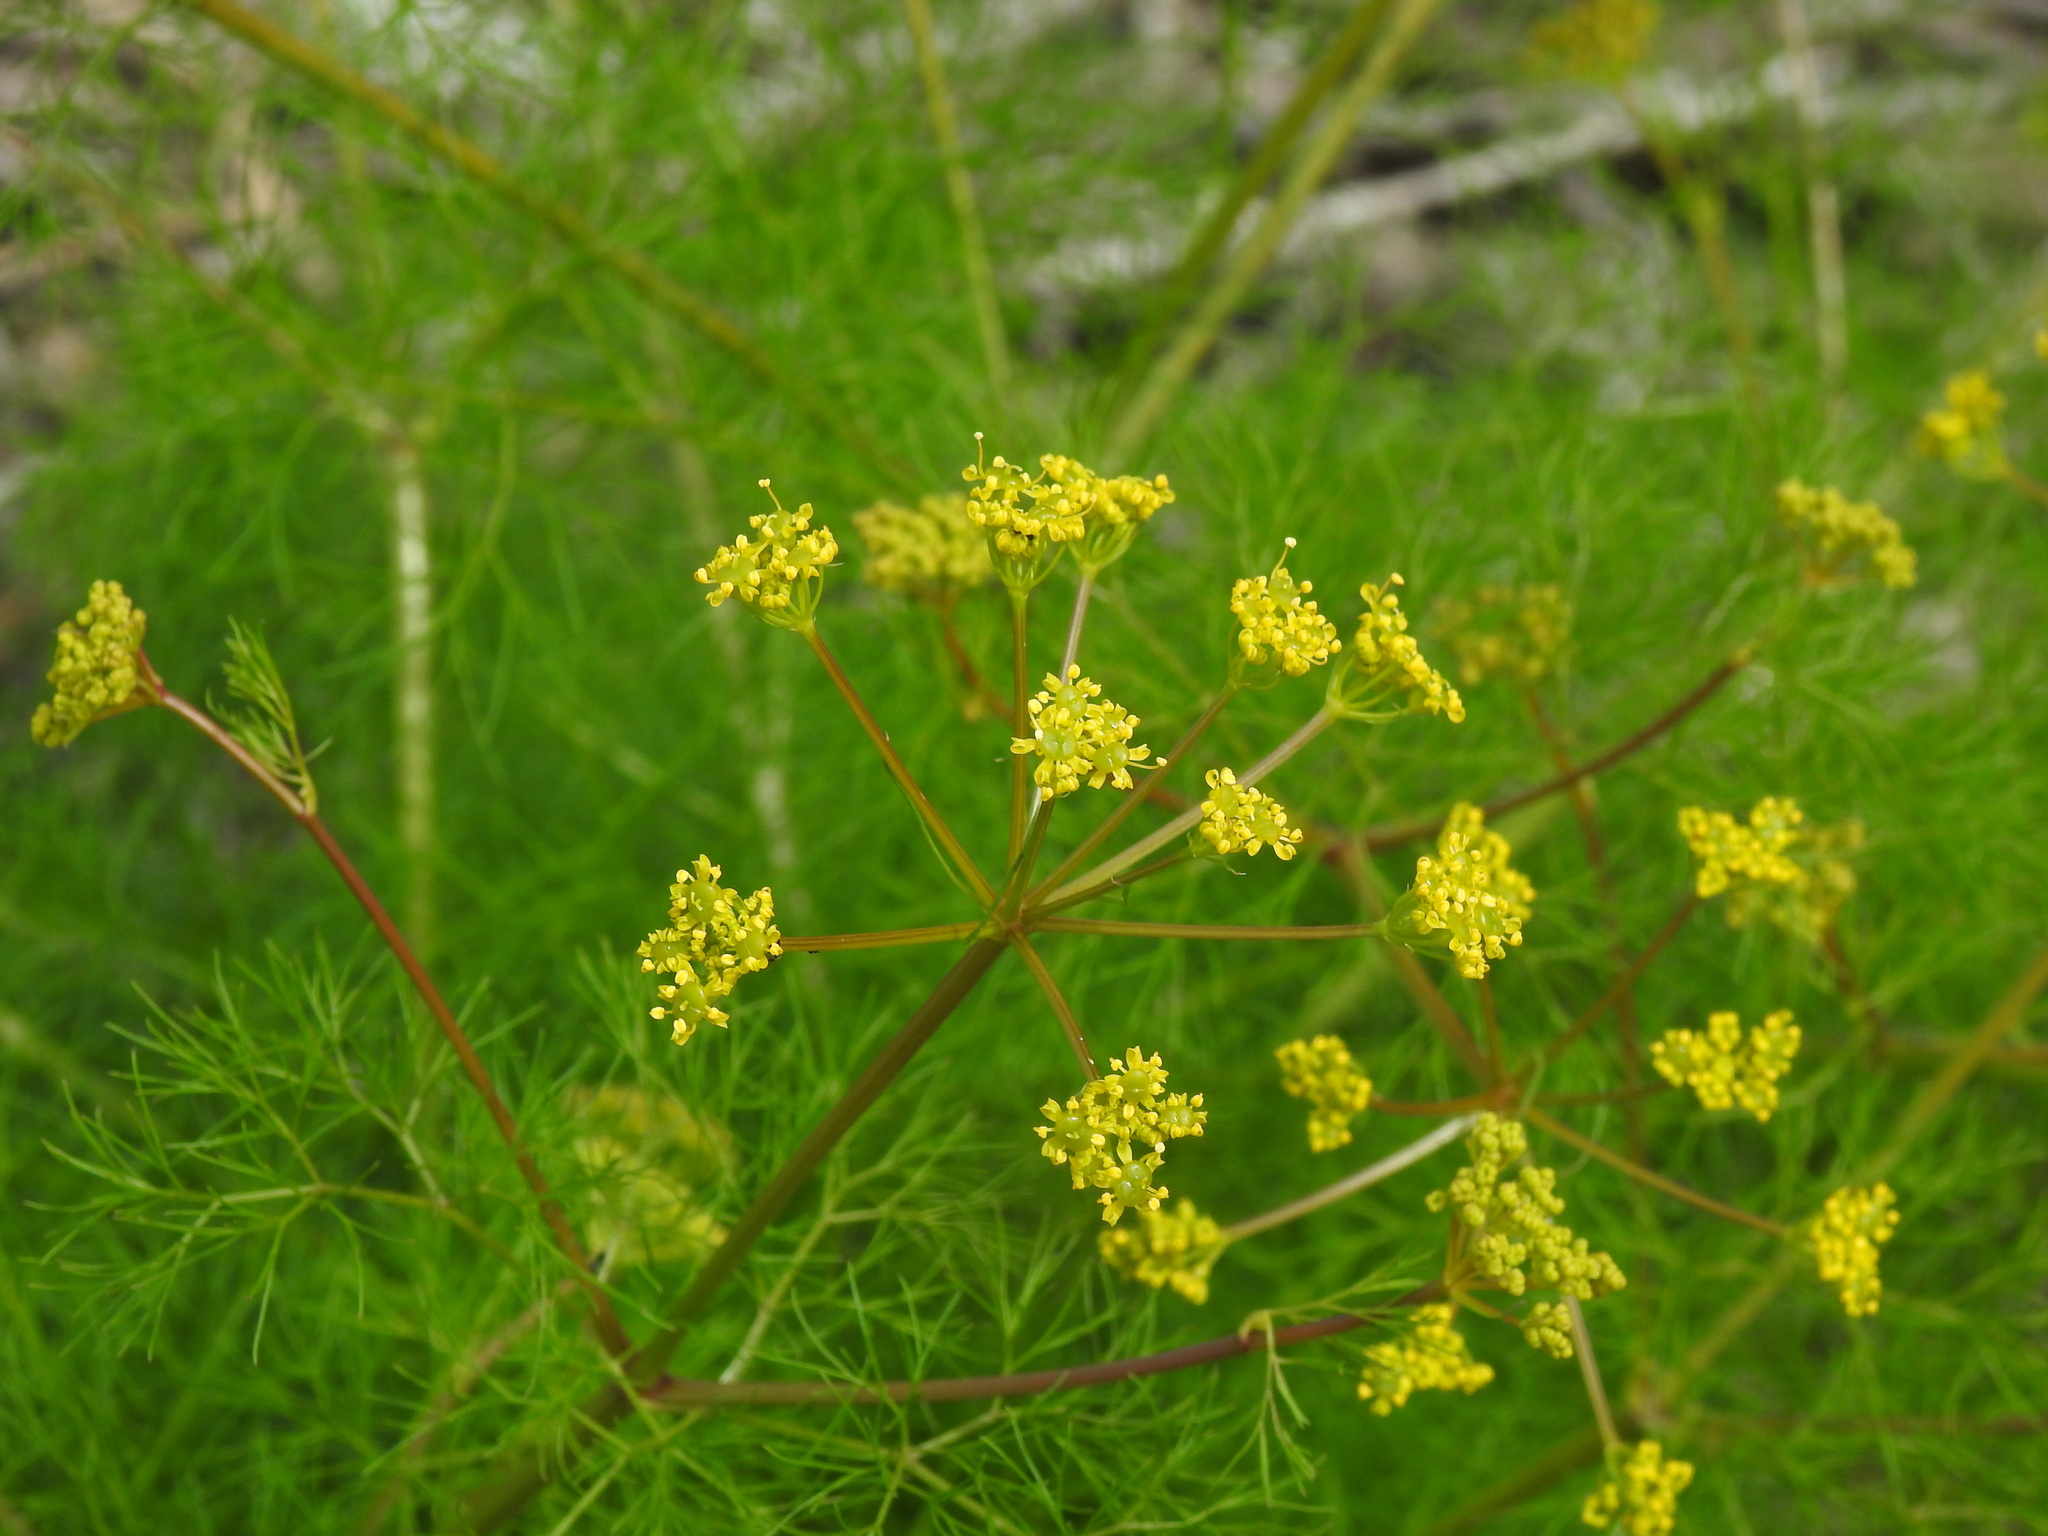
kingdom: Plantae
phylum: Tracheophyta
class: Magnoliopsida
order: Apiales
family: Apiaceae
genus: Prangos
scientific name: Prangos trifida
